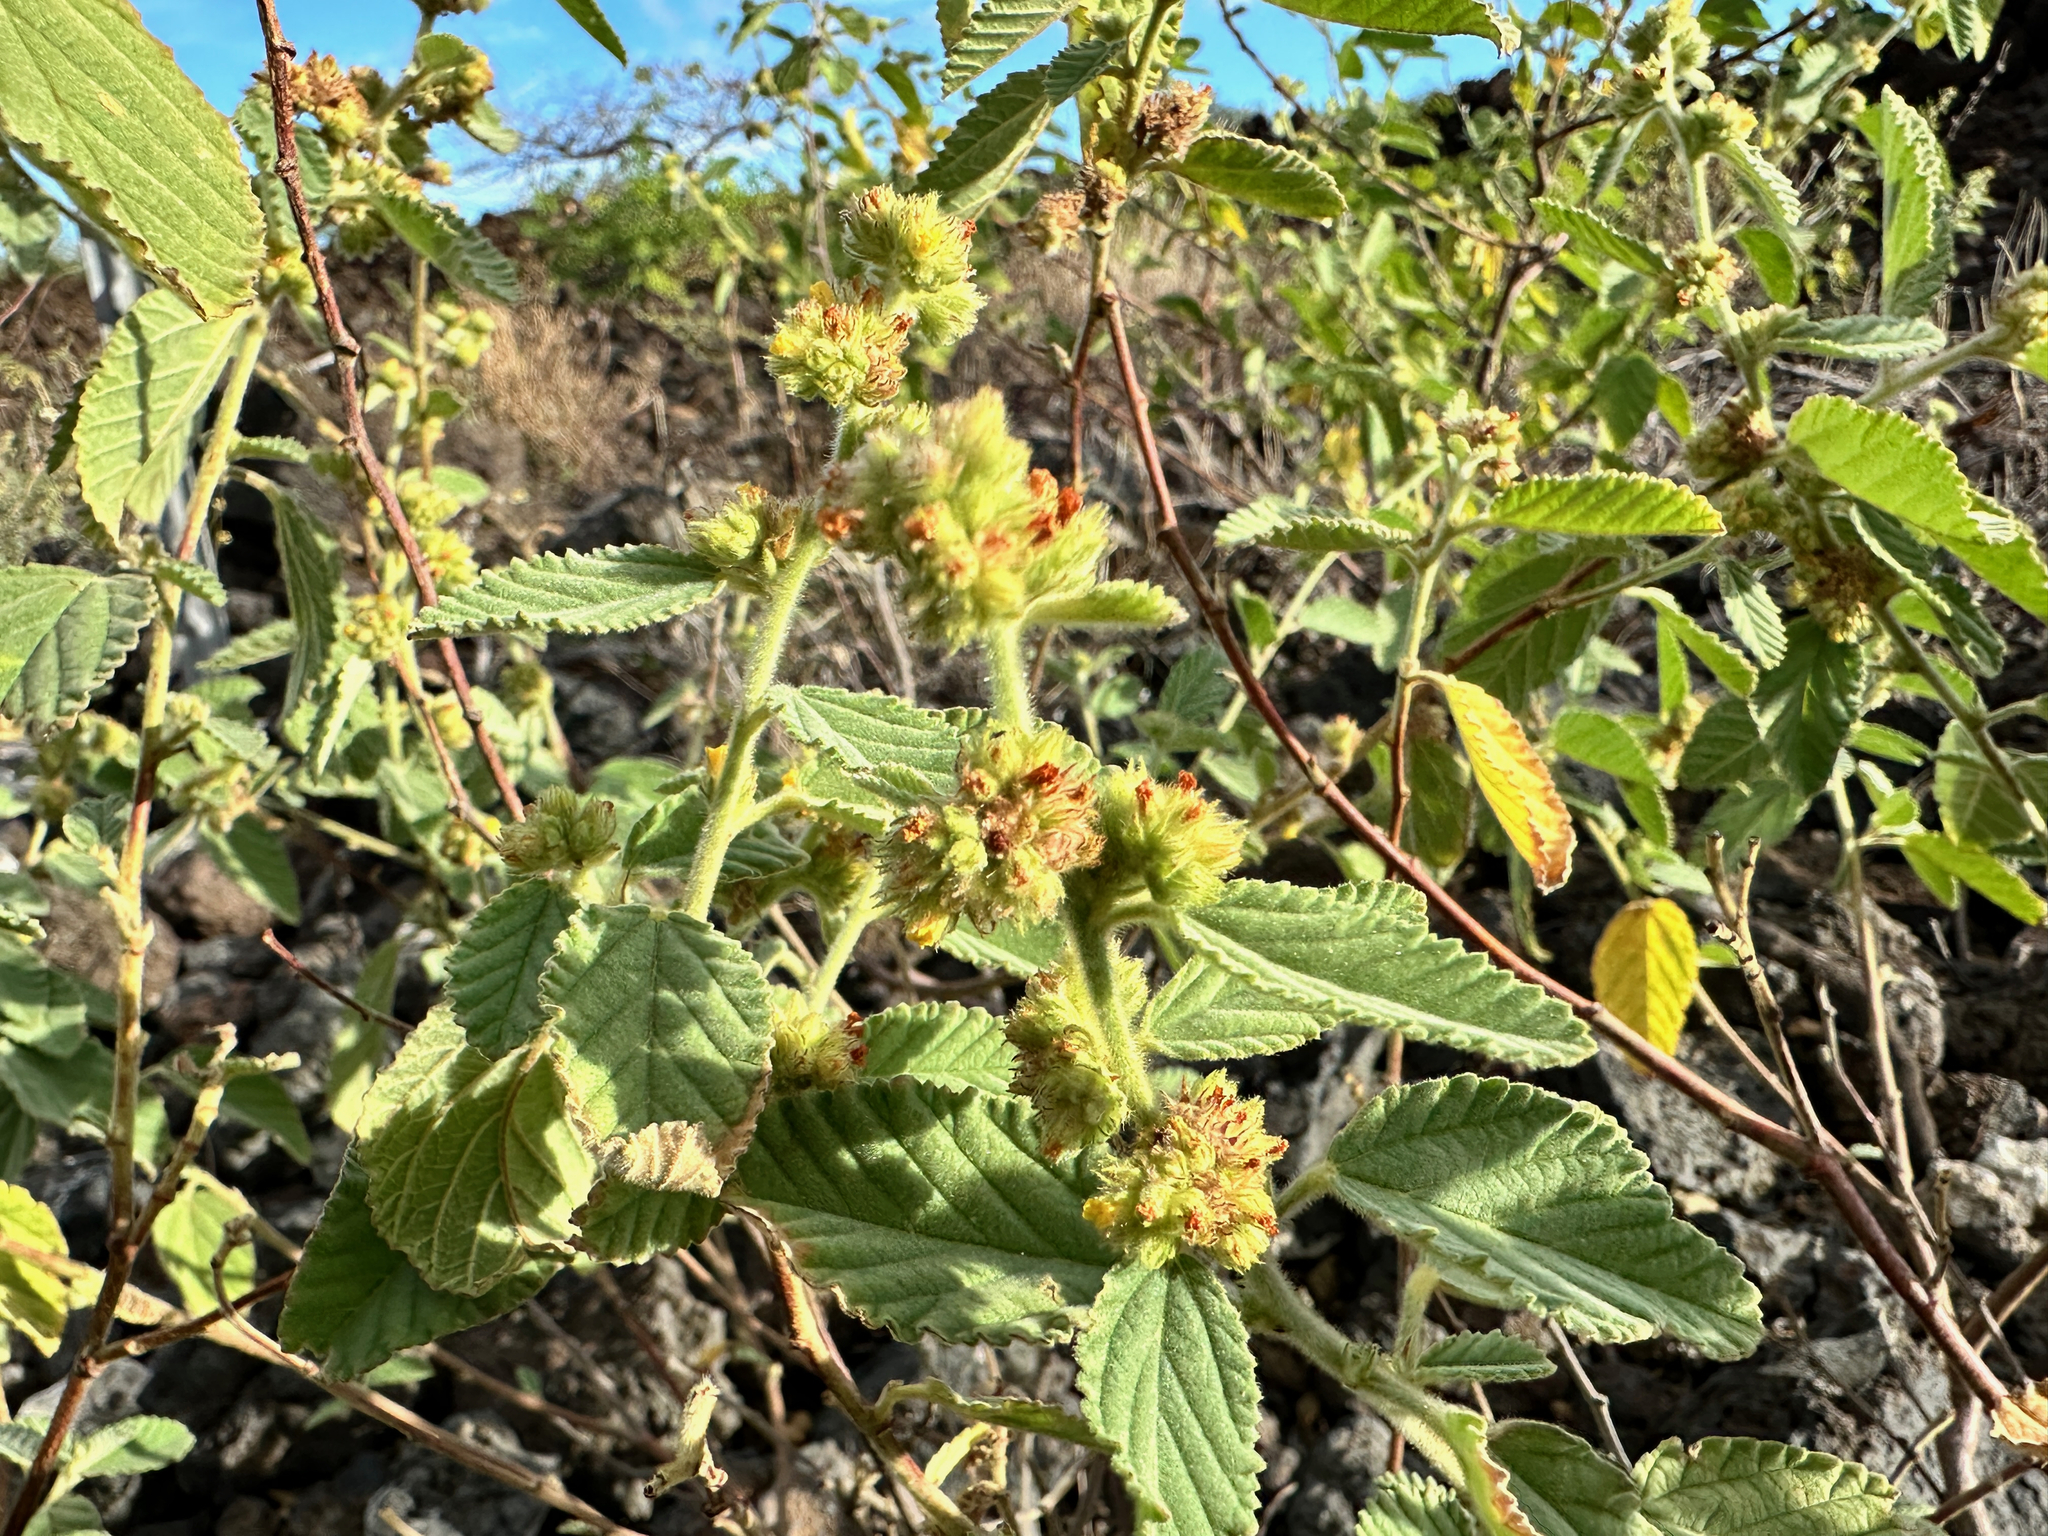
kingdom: Plantae
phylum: Tracheophyta
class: Magnoliopsida
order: Malvales
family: Malvaceae
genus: Waltheria
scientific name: Waltheria indica
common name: Leather-coat
